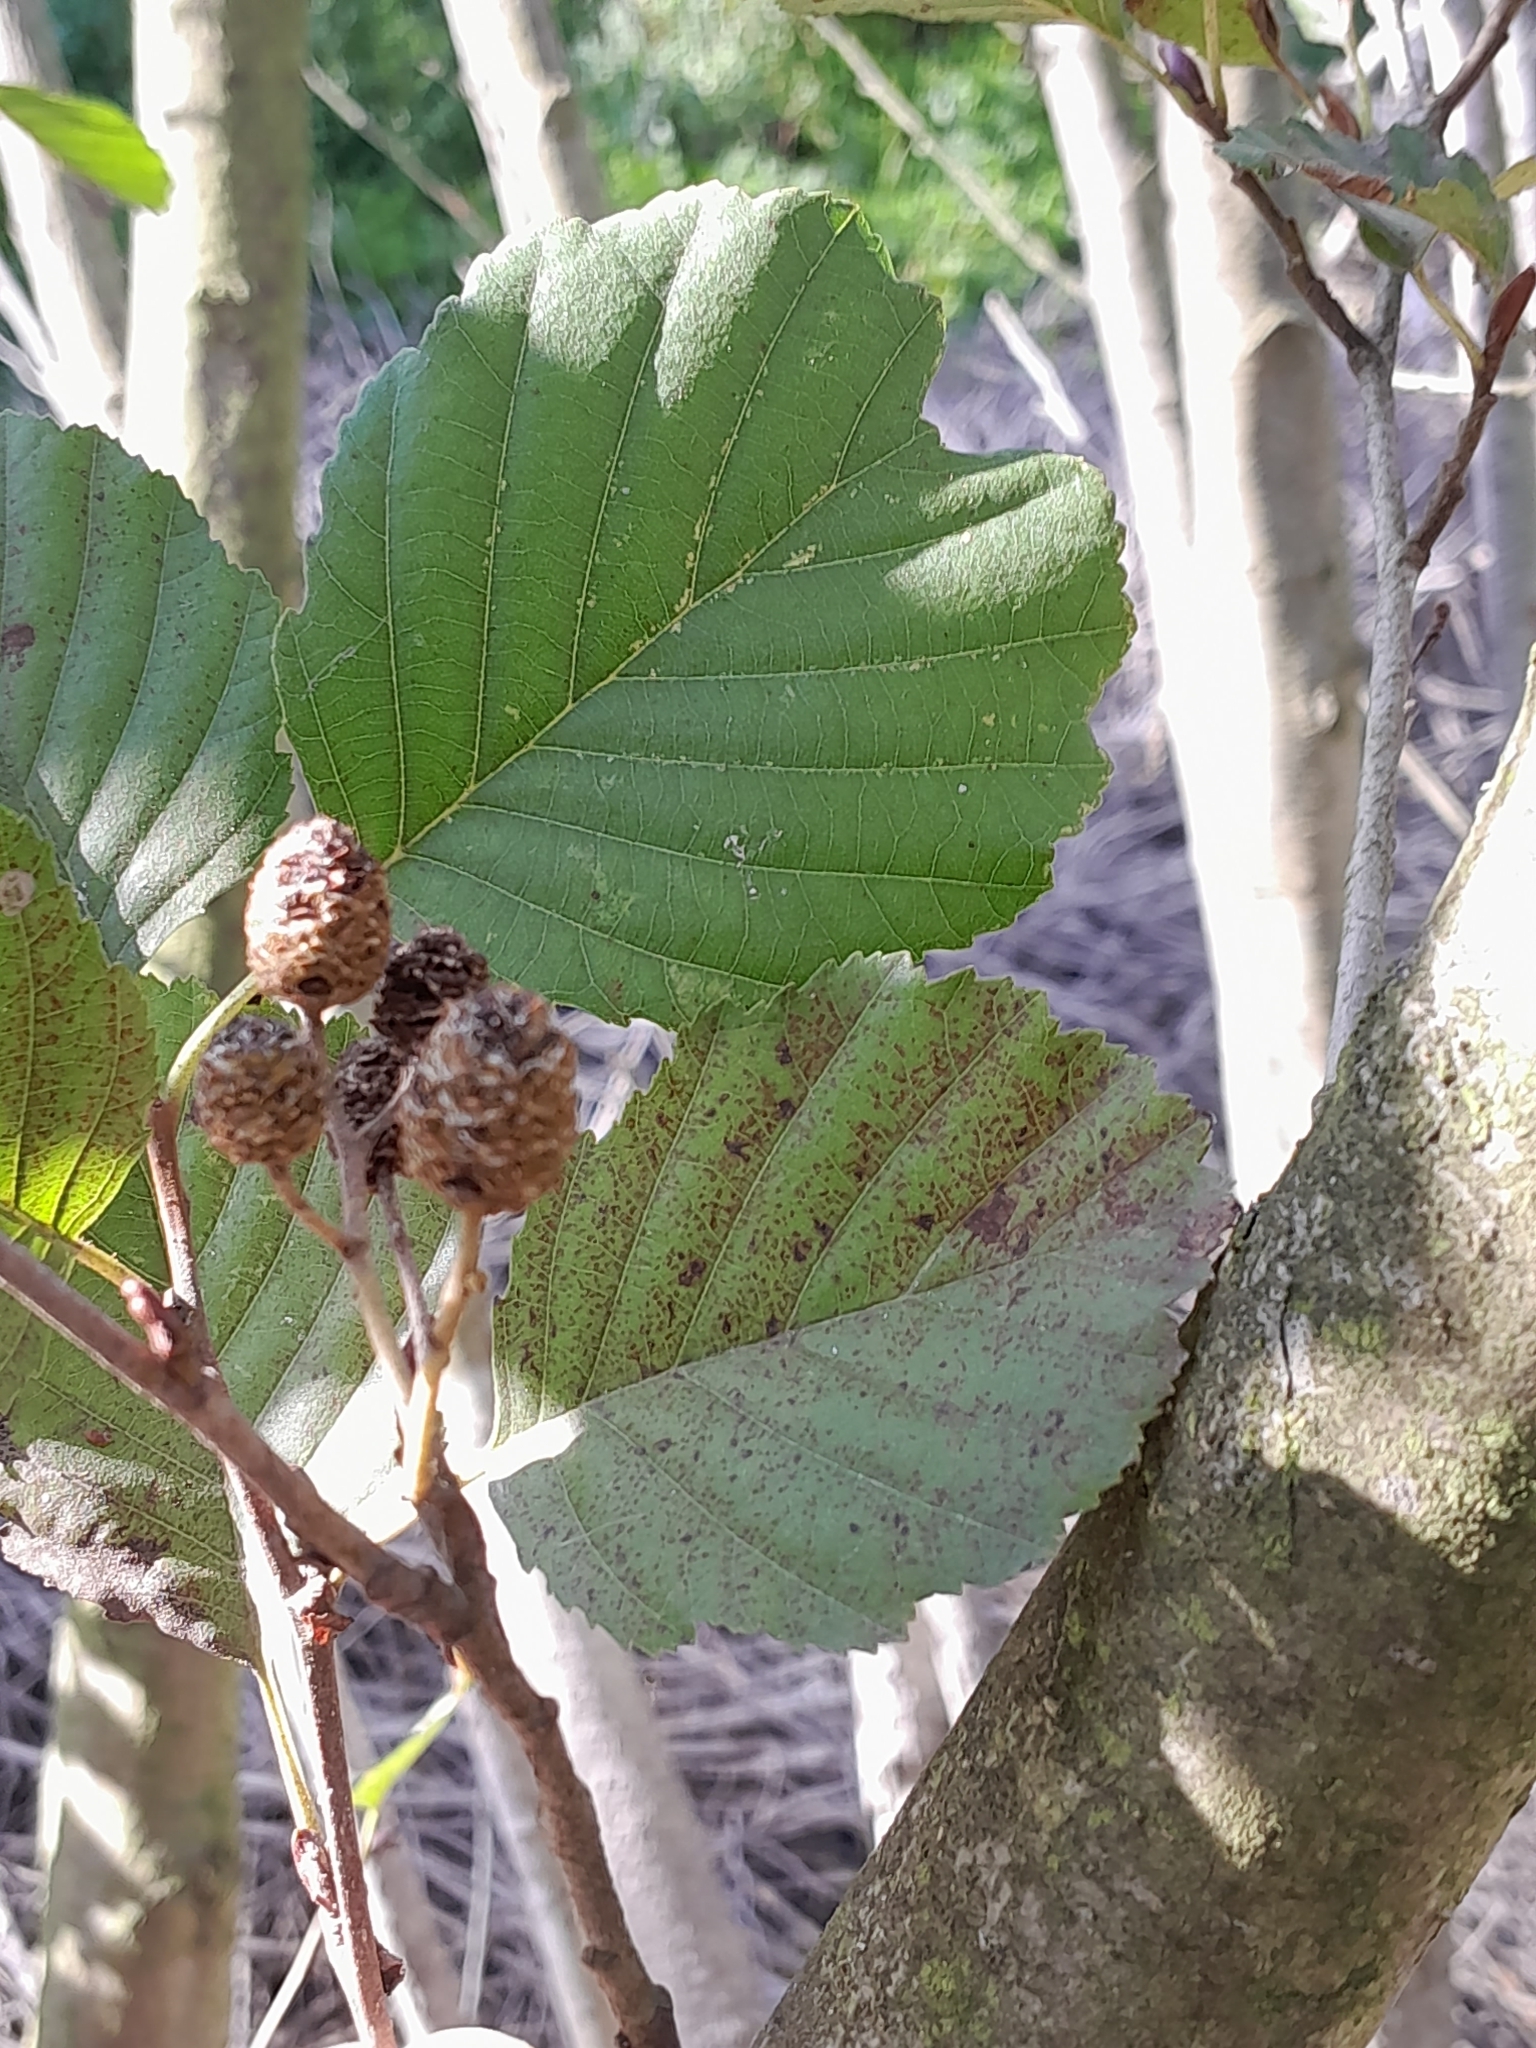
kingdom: Plantae
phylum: Tracheophyta
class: Magnoliopsida
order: Fagales
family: Betulaceae
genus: Alnus
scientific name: Alnus glutinosa
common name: Black alder
